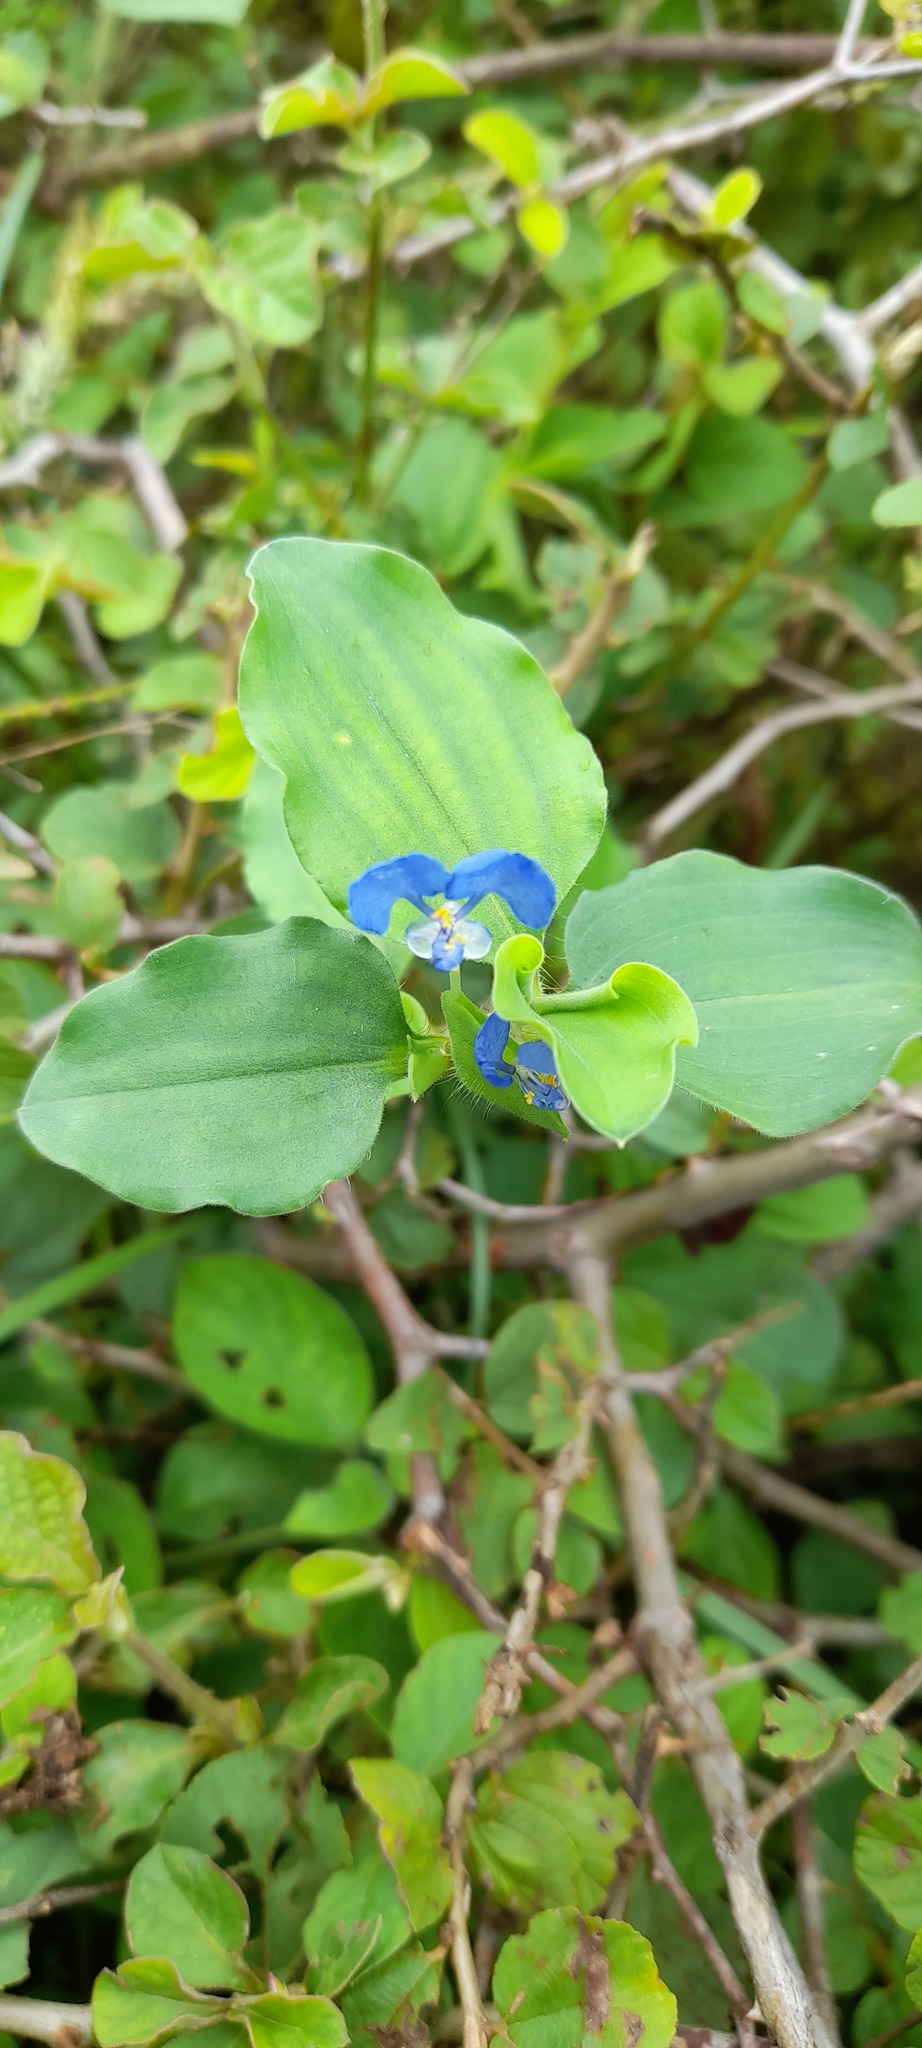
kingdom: Plantae
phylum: Tracheophyta
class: Liliopsida
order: Commelinales
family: Commelinaceae
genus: Commelina
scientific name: Commelina benghalensis
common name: Jio
